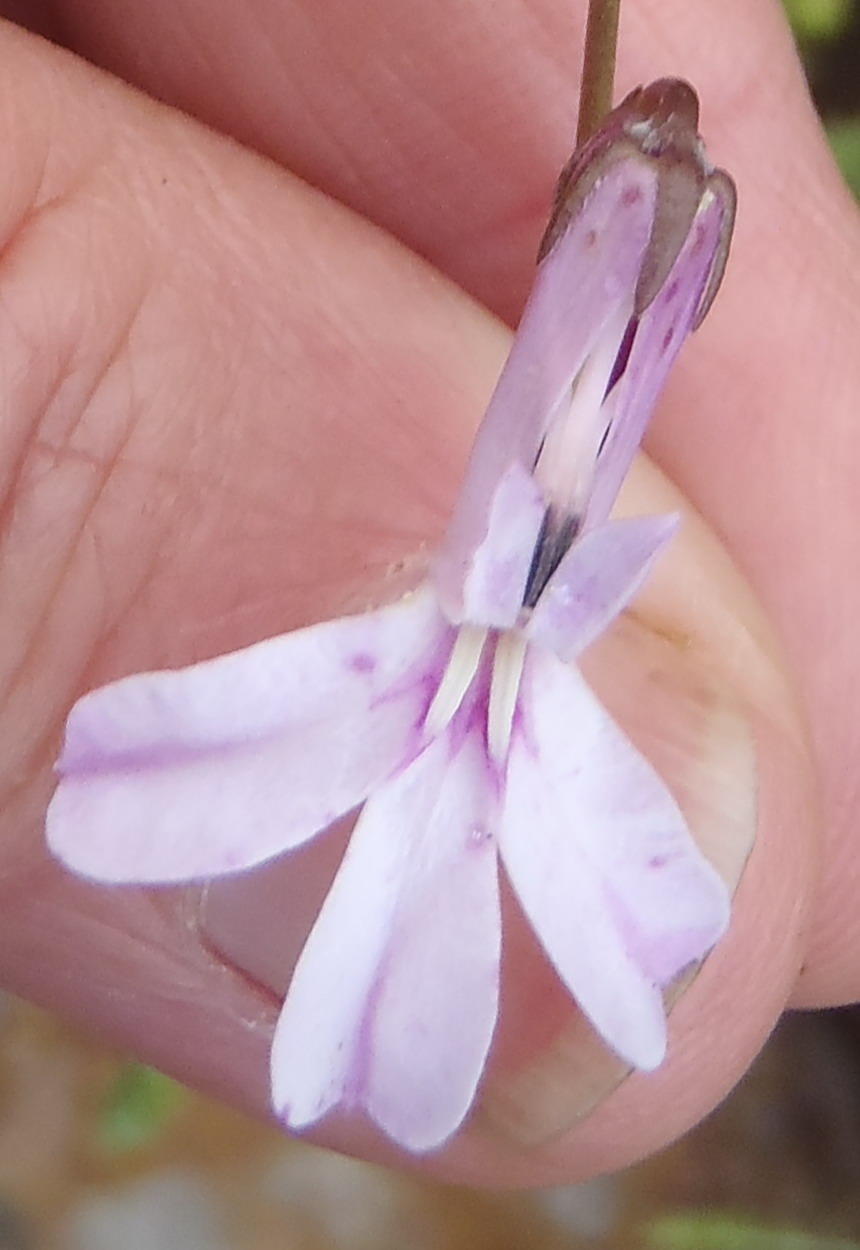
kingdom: Plantae
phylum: Tracheophyta
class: Magnoliopsida
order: Asterales
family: Campanulaceae
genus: Lobelia
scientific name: Lobelia tomentosa
